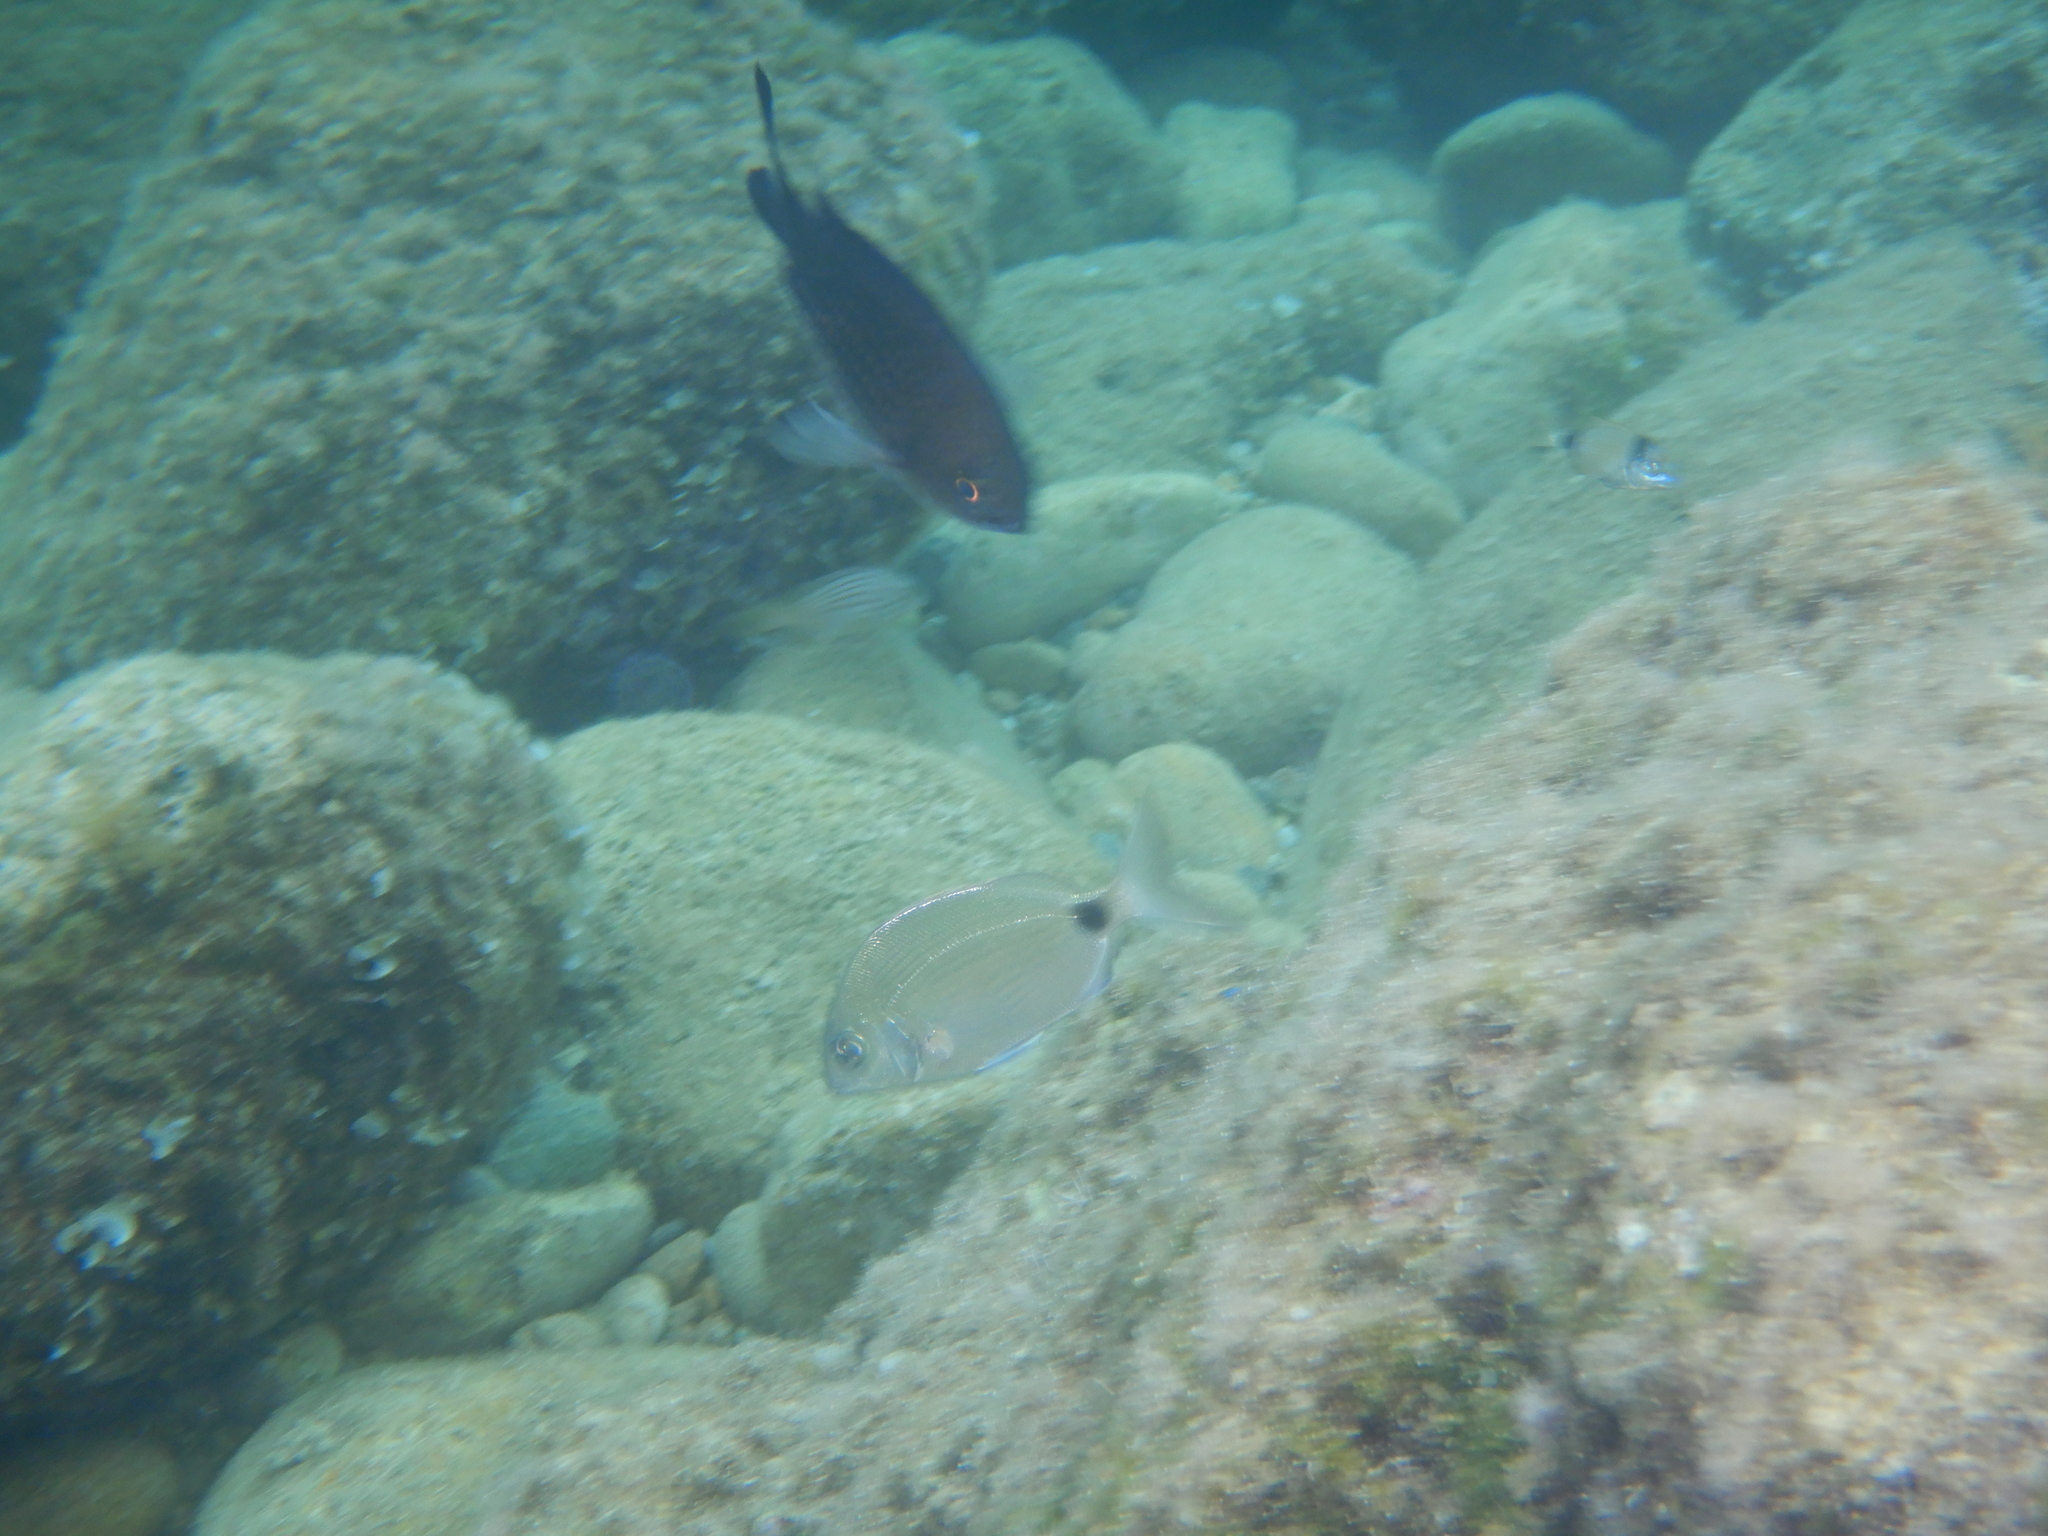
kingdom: Animalia
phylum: Chordata
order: Perciformes
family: Sparidae
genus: Diplodus
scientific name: Diplodus sargus
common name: White seabream
